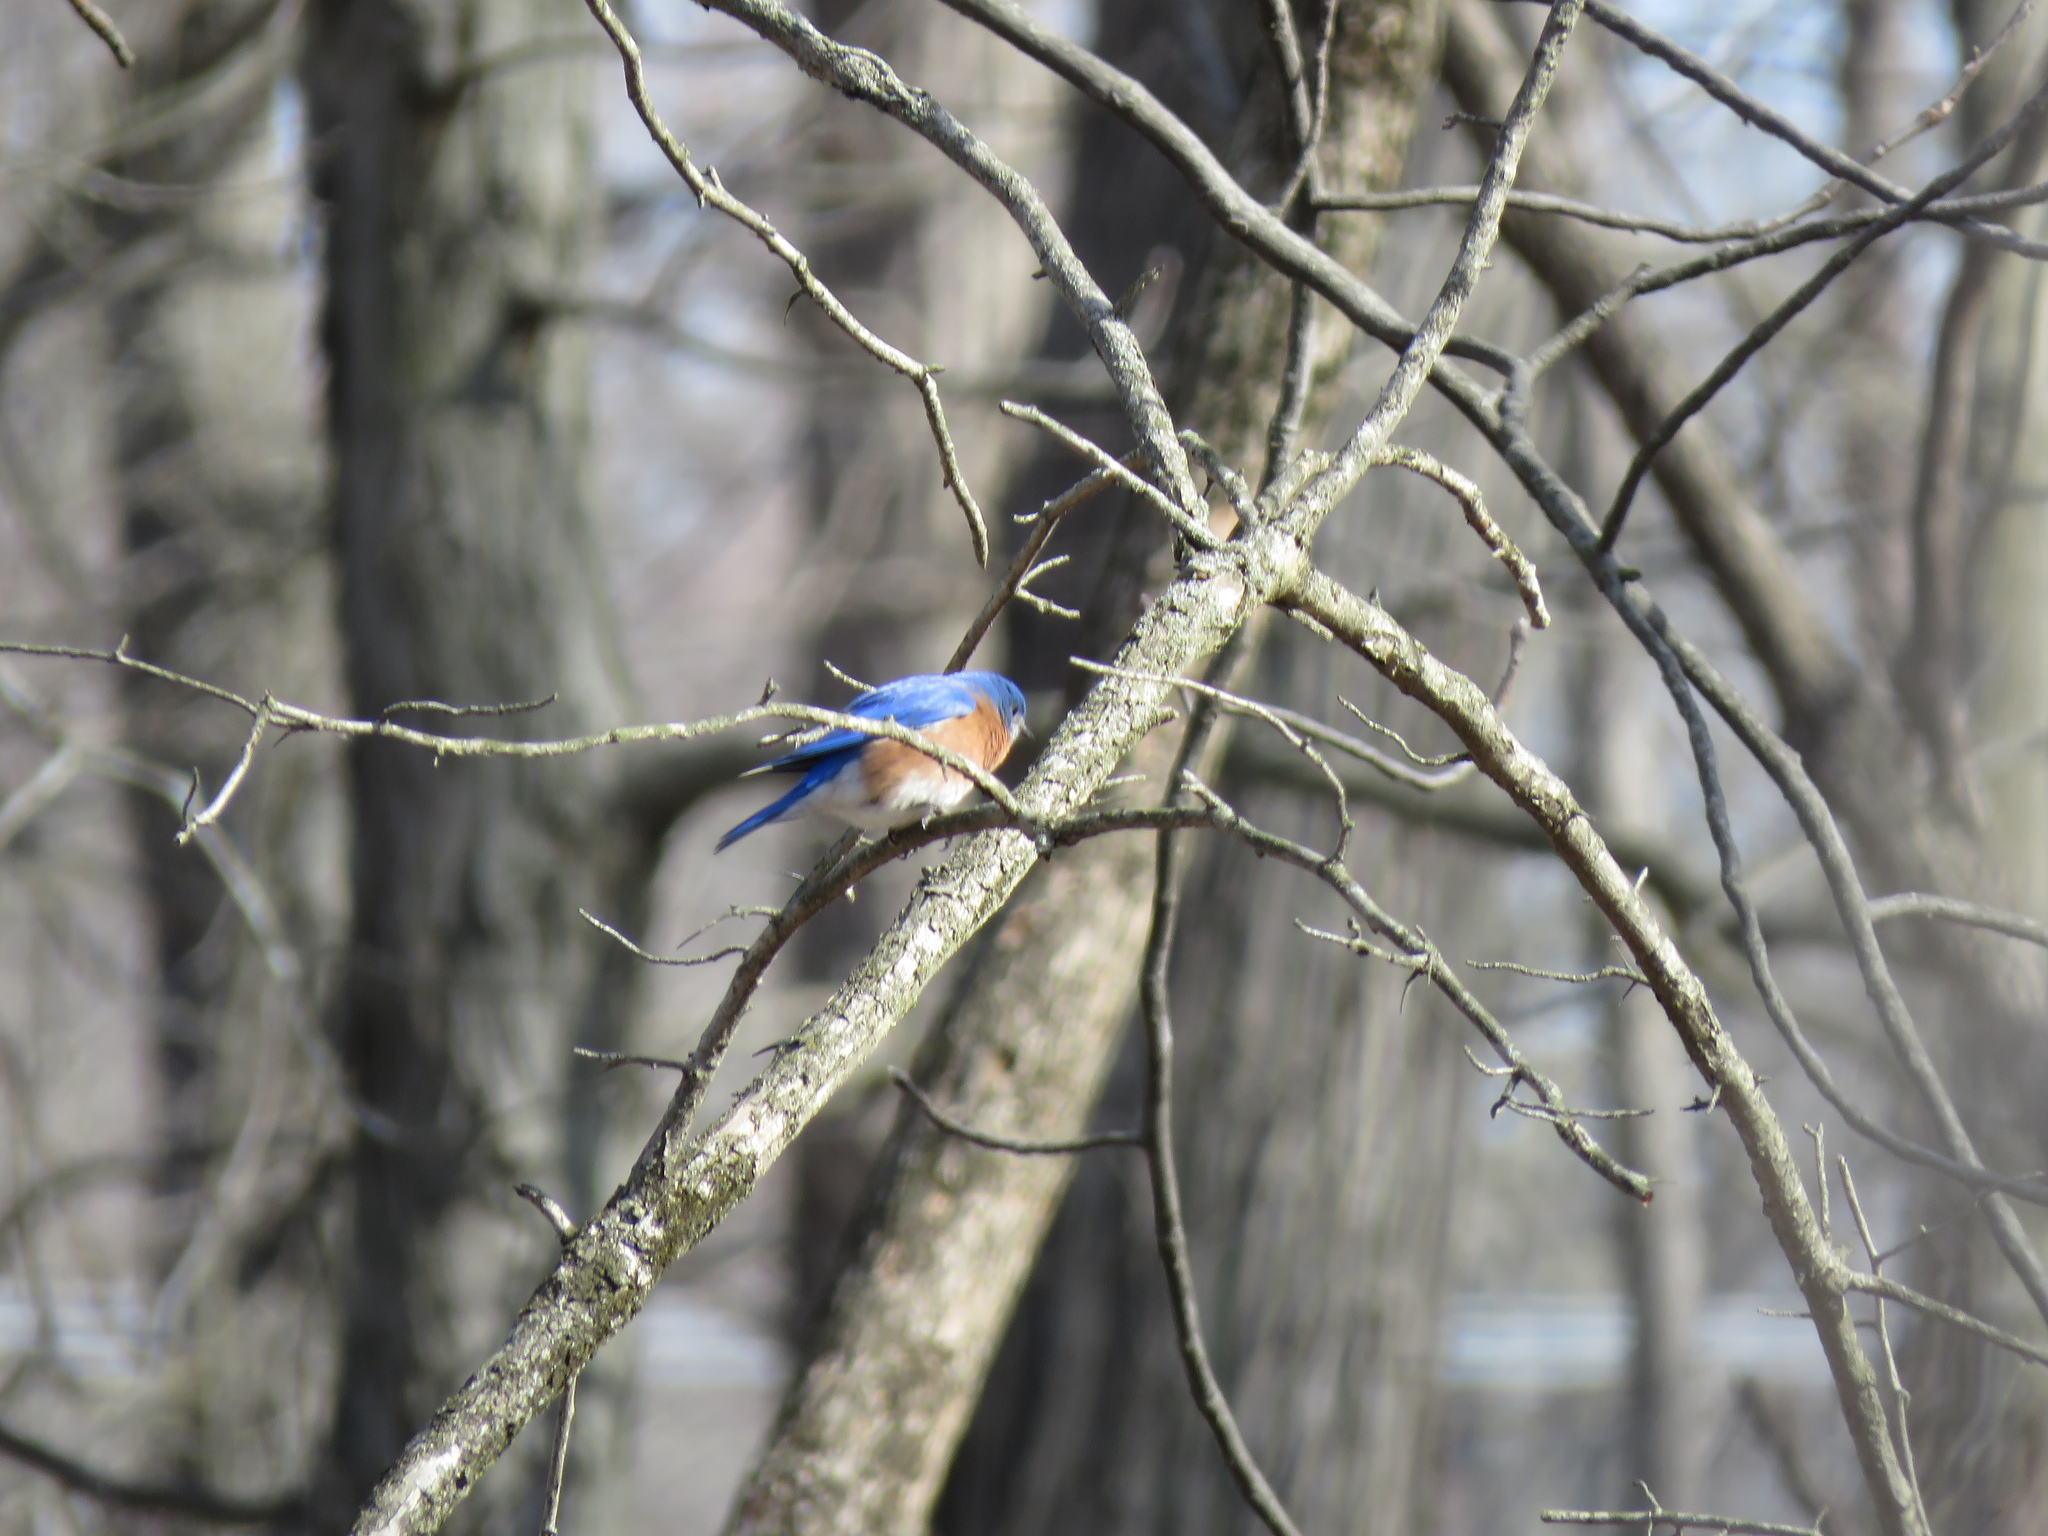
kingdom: Animalia
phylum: Chordata
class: Aves
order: Passeriformes
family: Turdidae
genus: Sialia
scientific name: Sialia sialis
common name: Eastern bluebird
